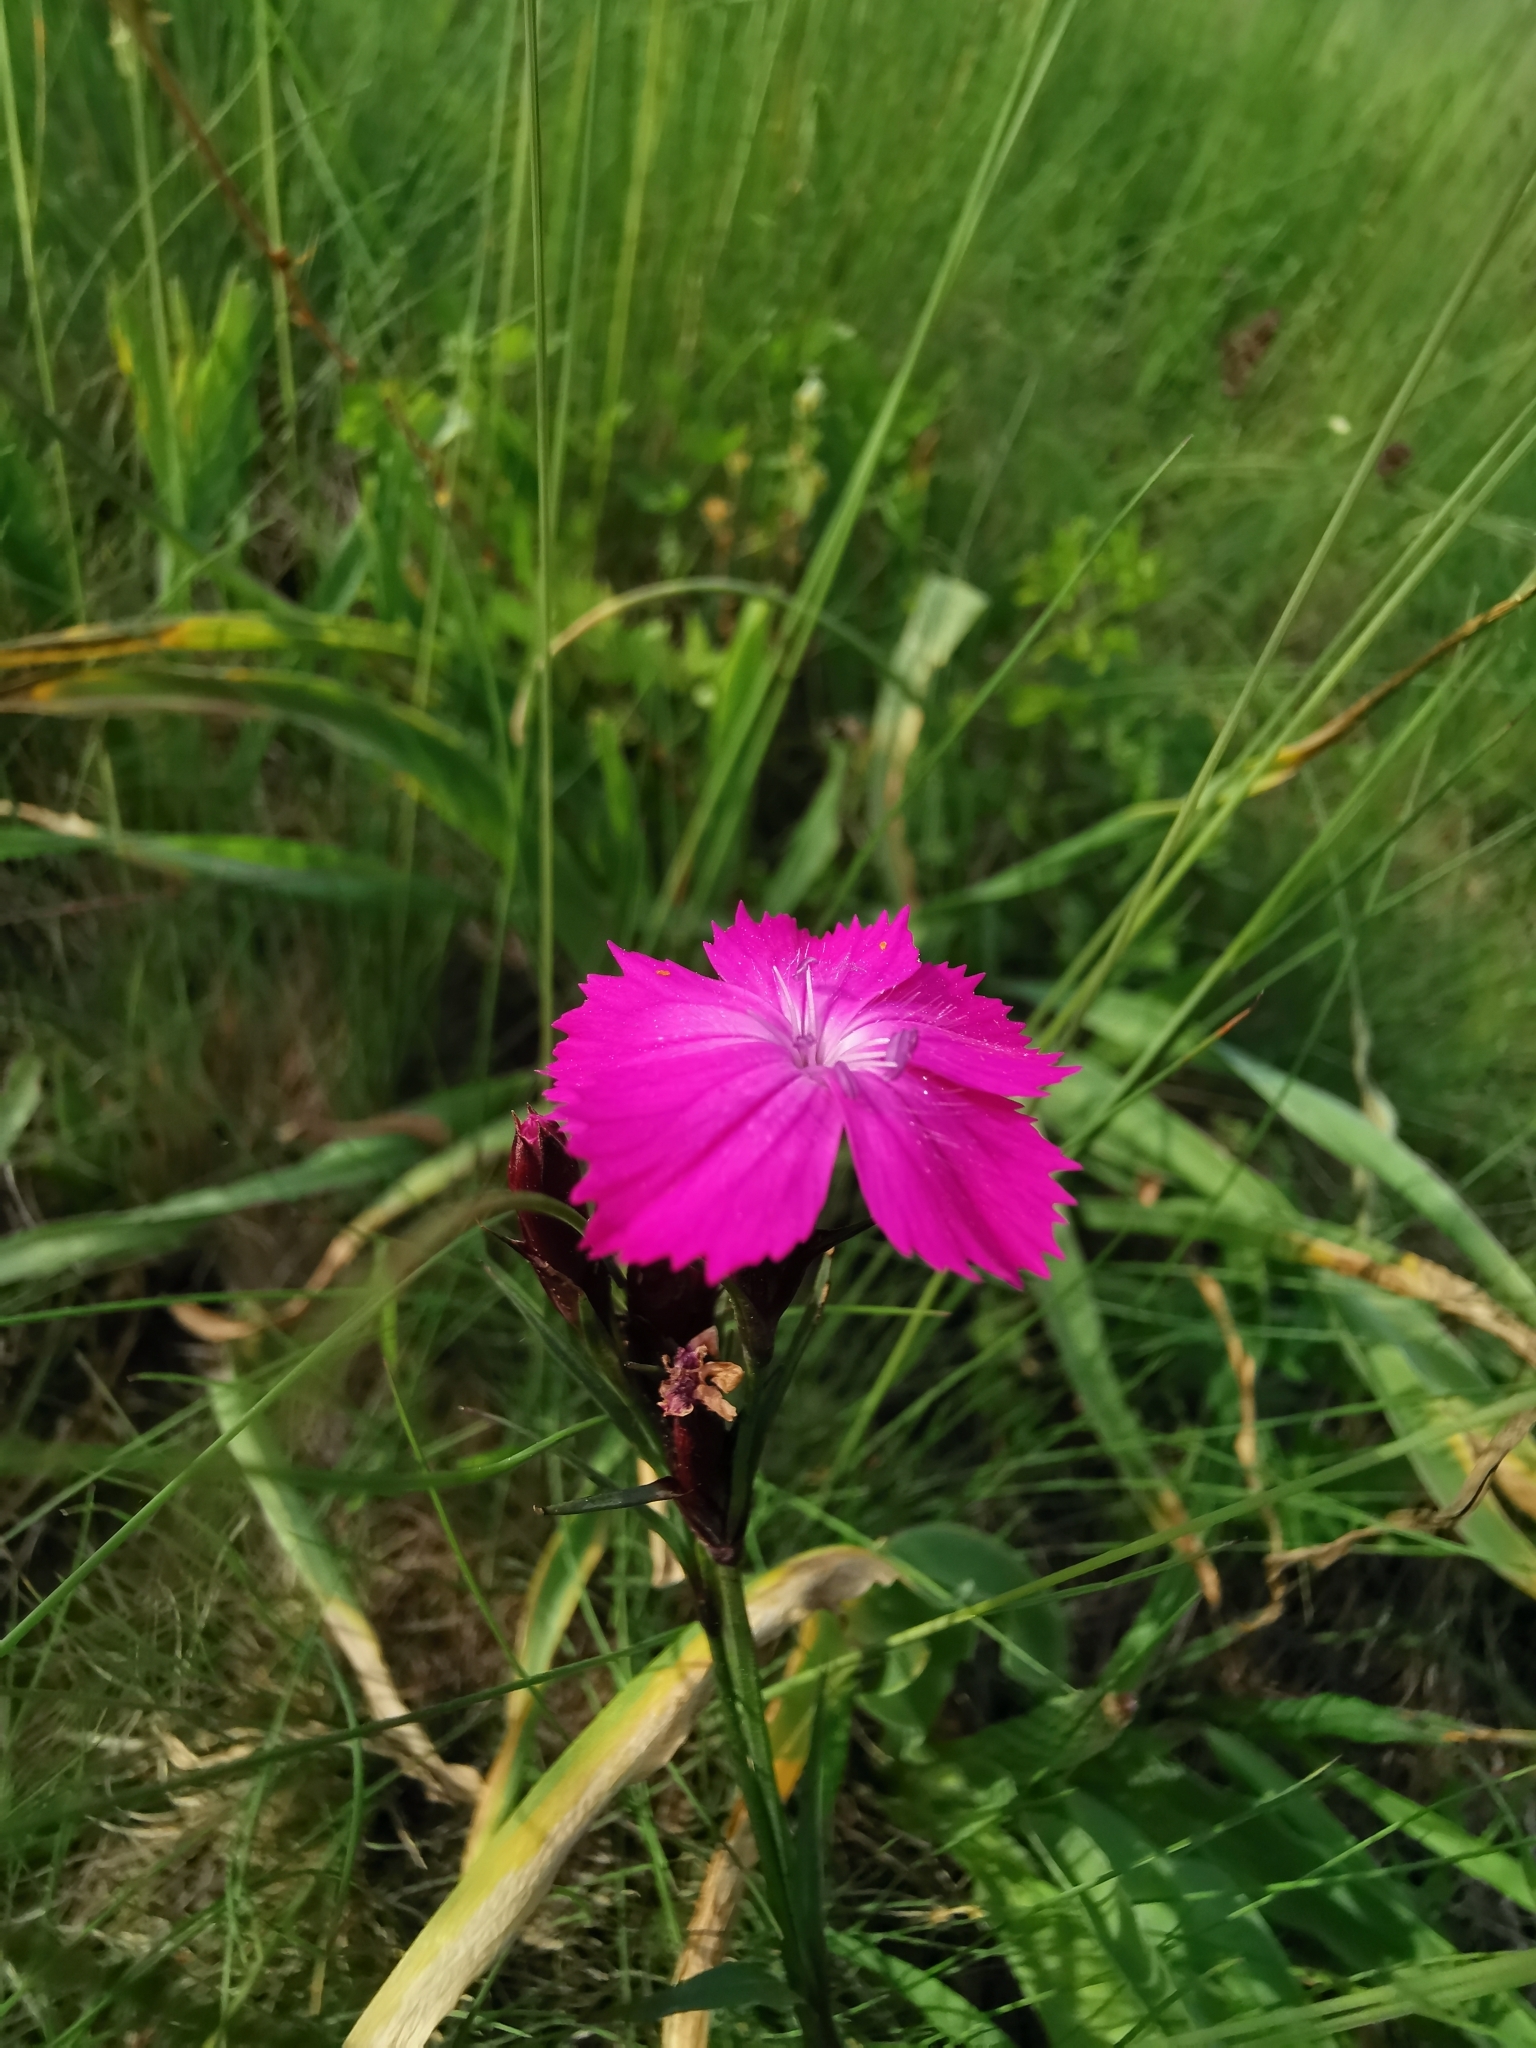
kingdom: Plantae
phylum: Tracheophyta
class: Magnoliopsida
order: Caryophyllales
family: Caryophyllaceae
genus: Dianthus
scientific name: Dianthus carthusianorum
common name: Carthusian pink
